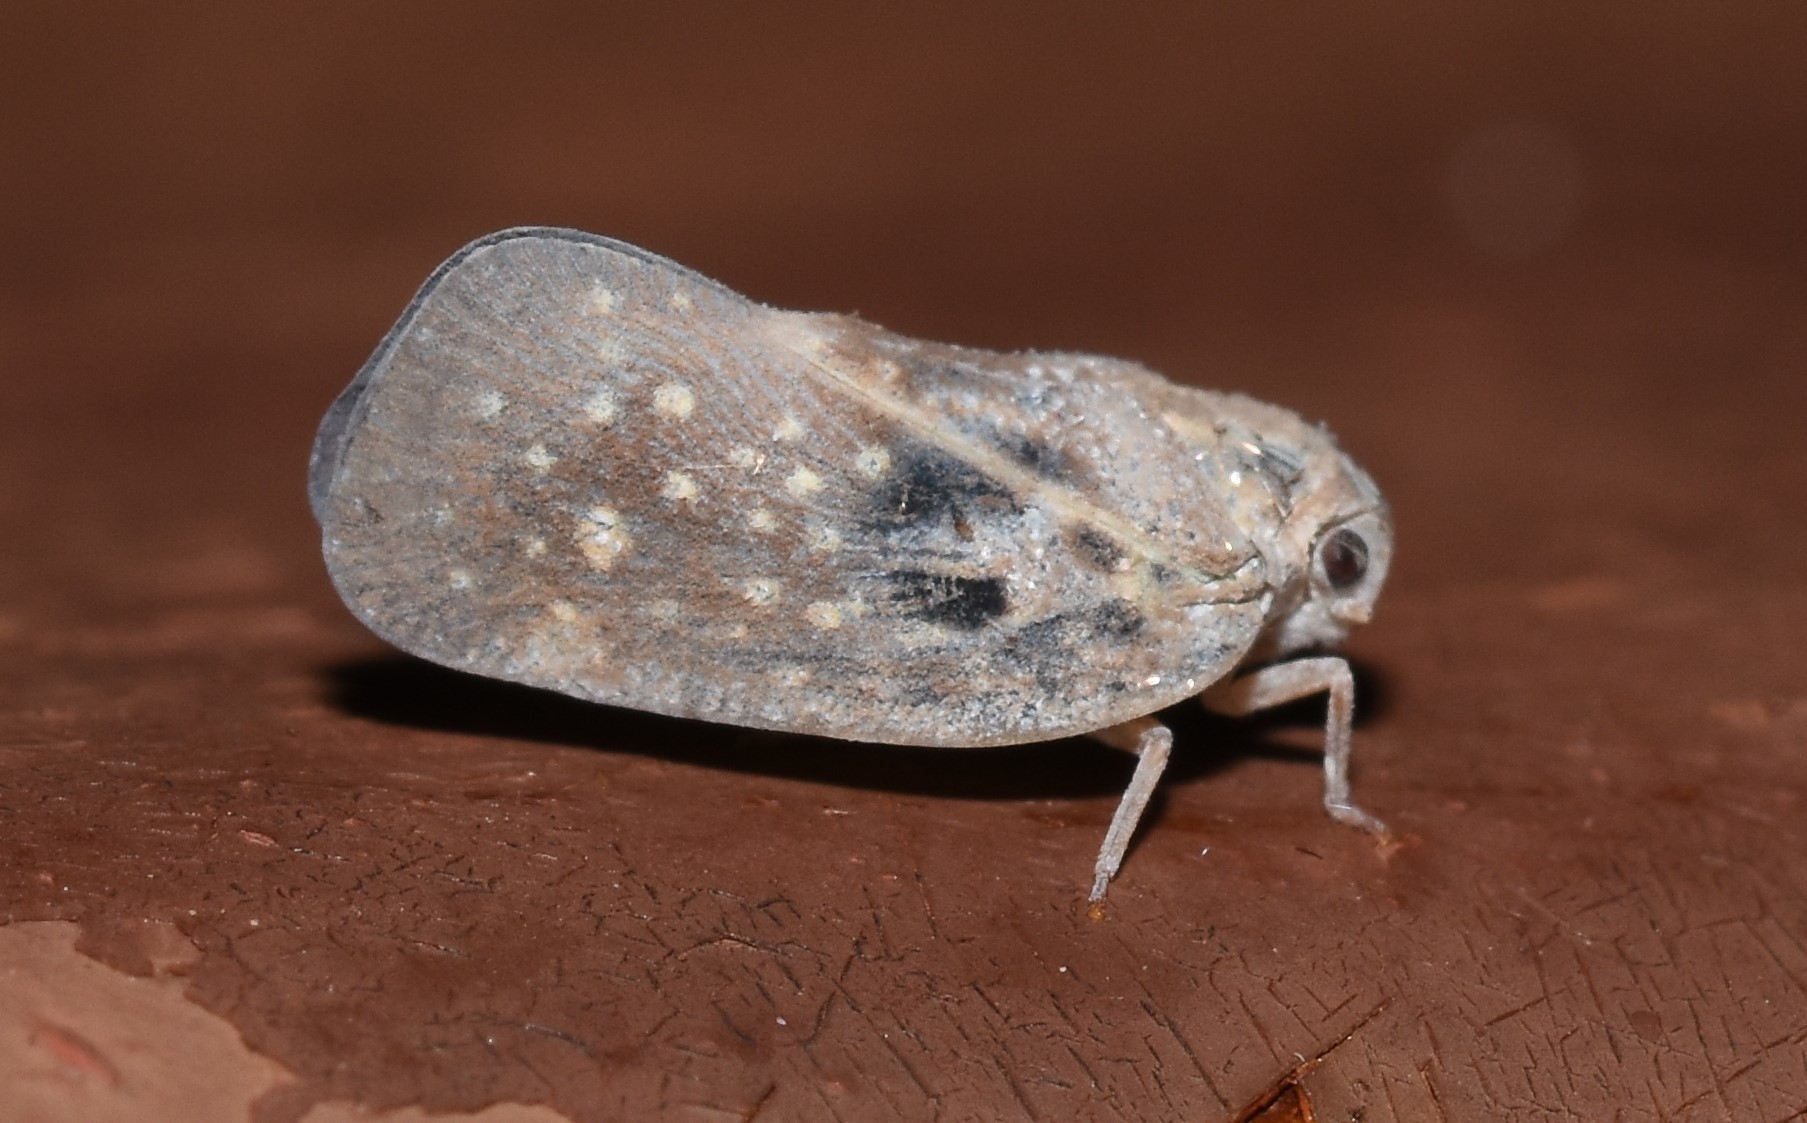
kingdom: Animalia
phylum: Arthropoda
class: Insecta
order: Hemiptera
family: Flatidae
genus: Metcalfa
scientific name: Metcalfa pruinosa
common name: Citrus flatid planthopper
